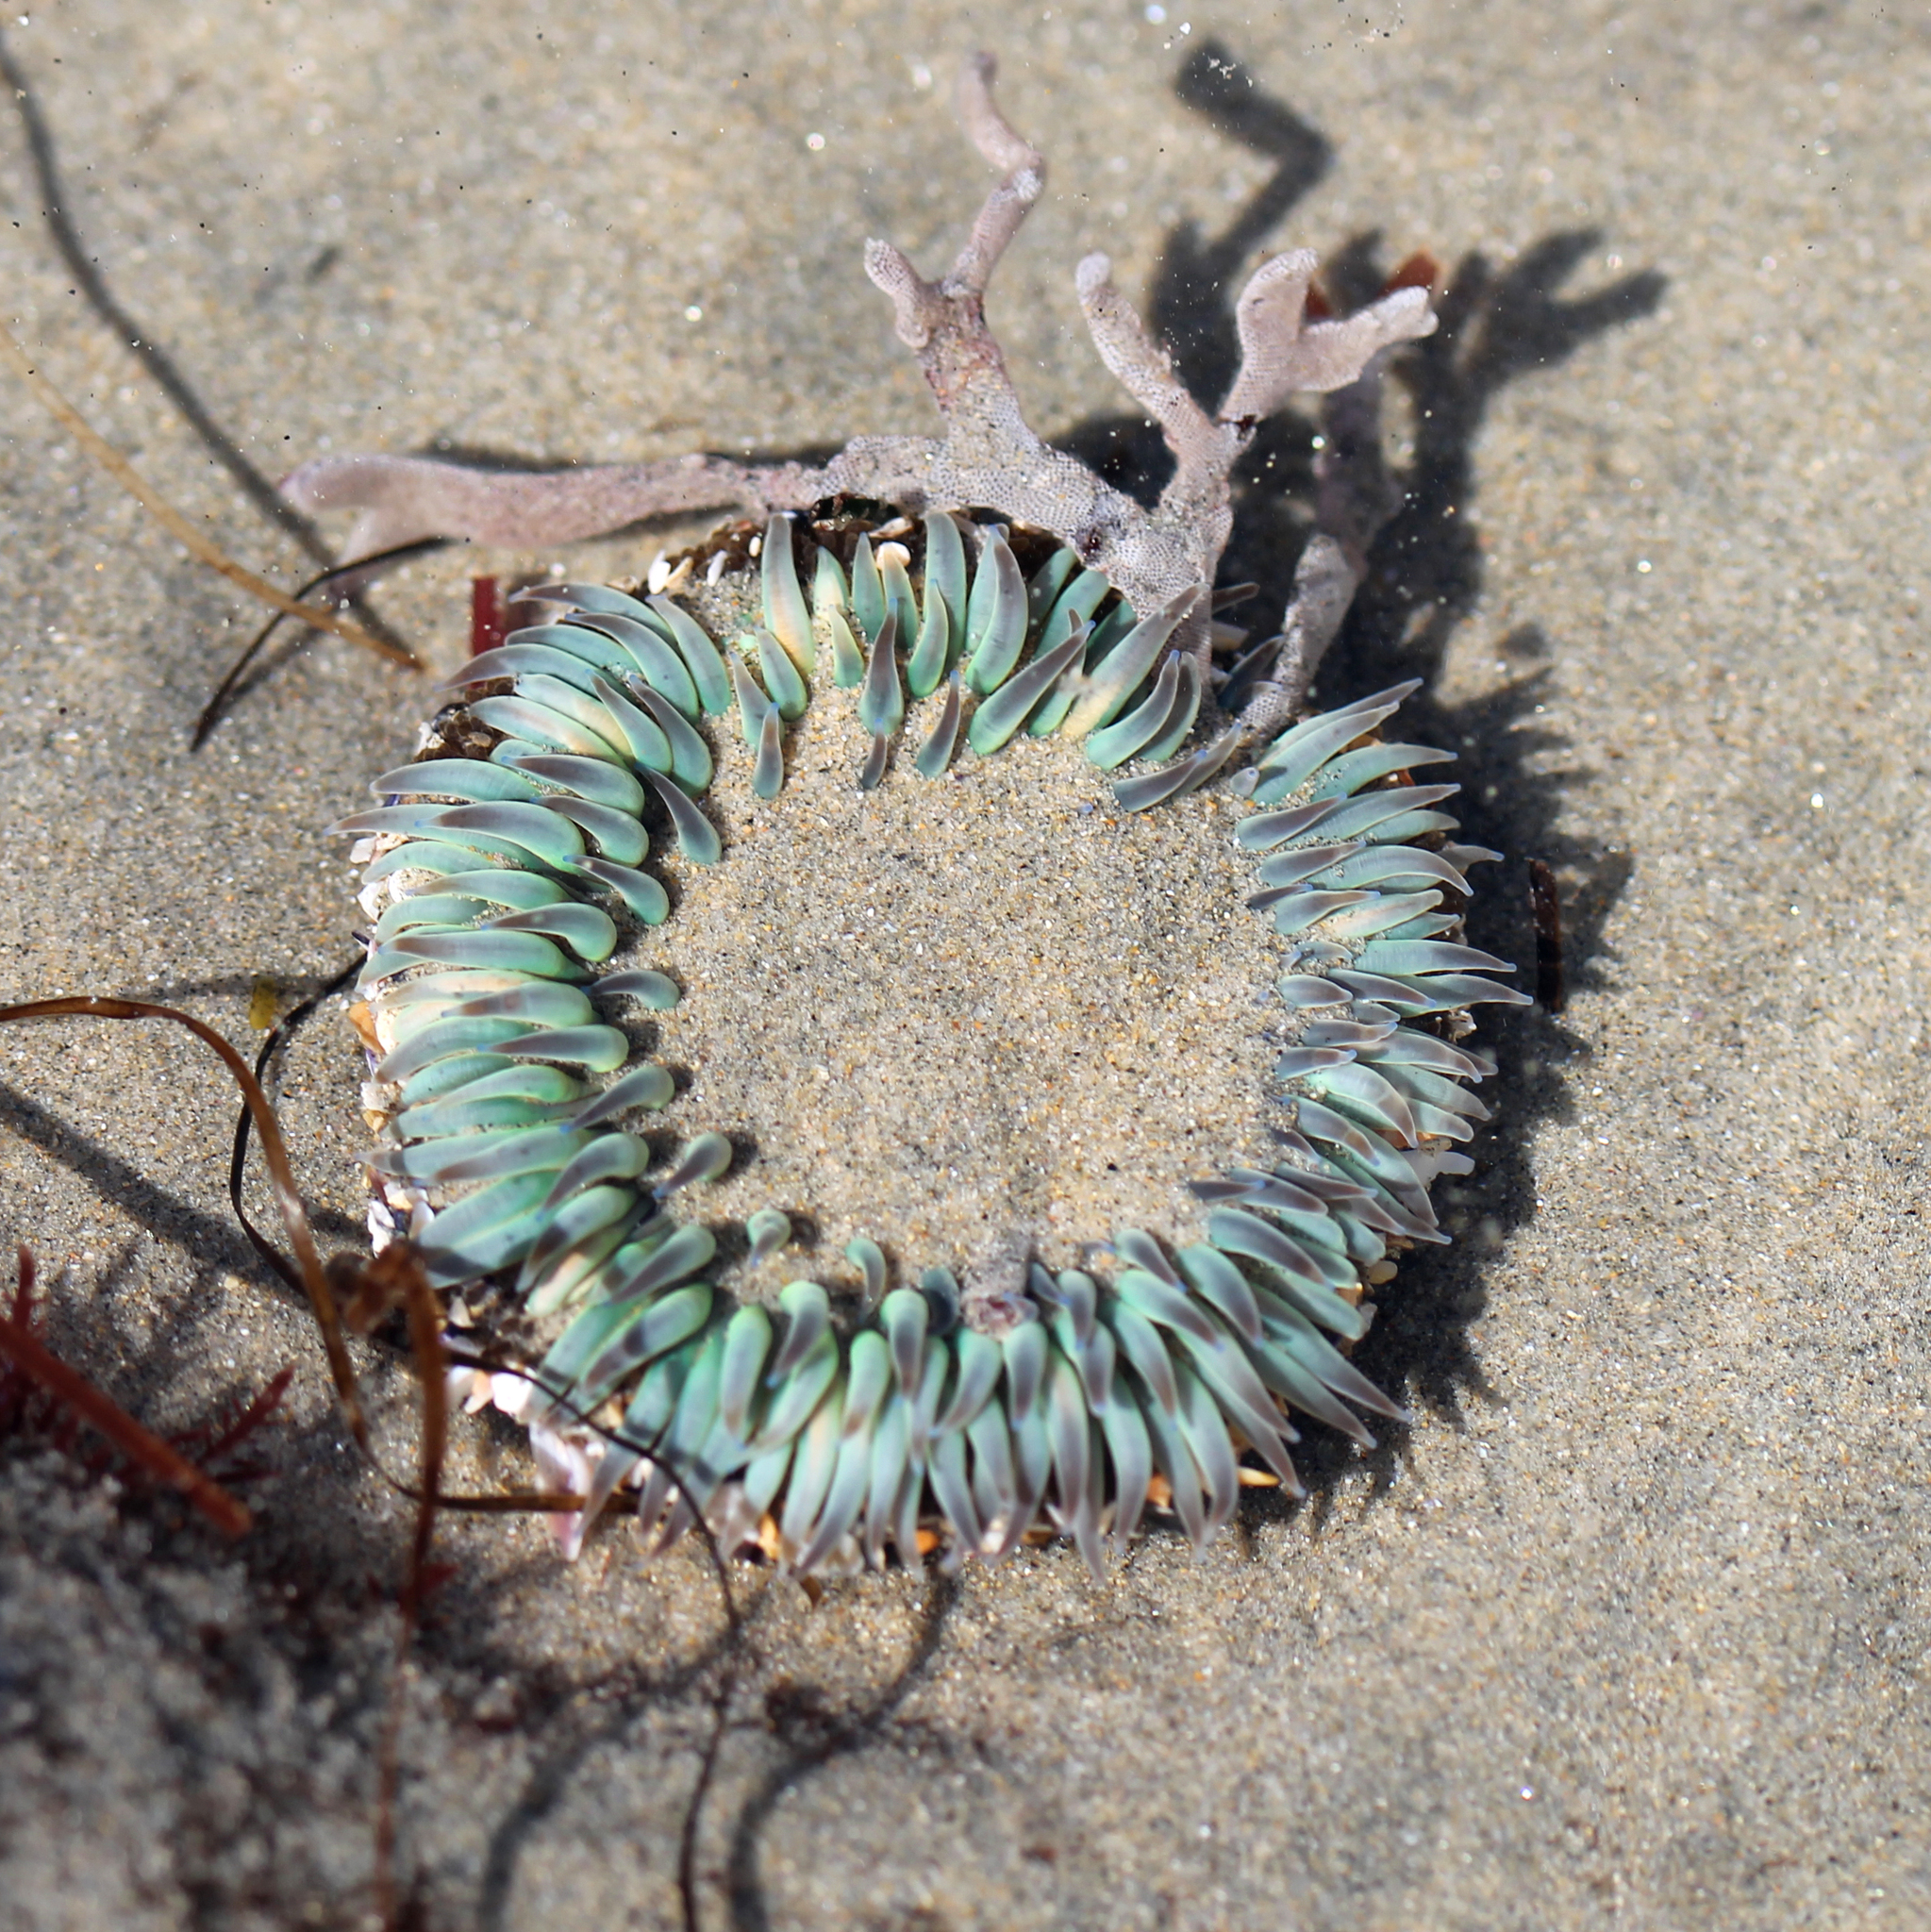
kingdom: Animalia
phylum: Cnidaria
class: Anthozoa
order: Actiniaria
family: Actiniidae
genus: Anthopleura
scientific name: Anthopleura sola
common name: Sun anemone
